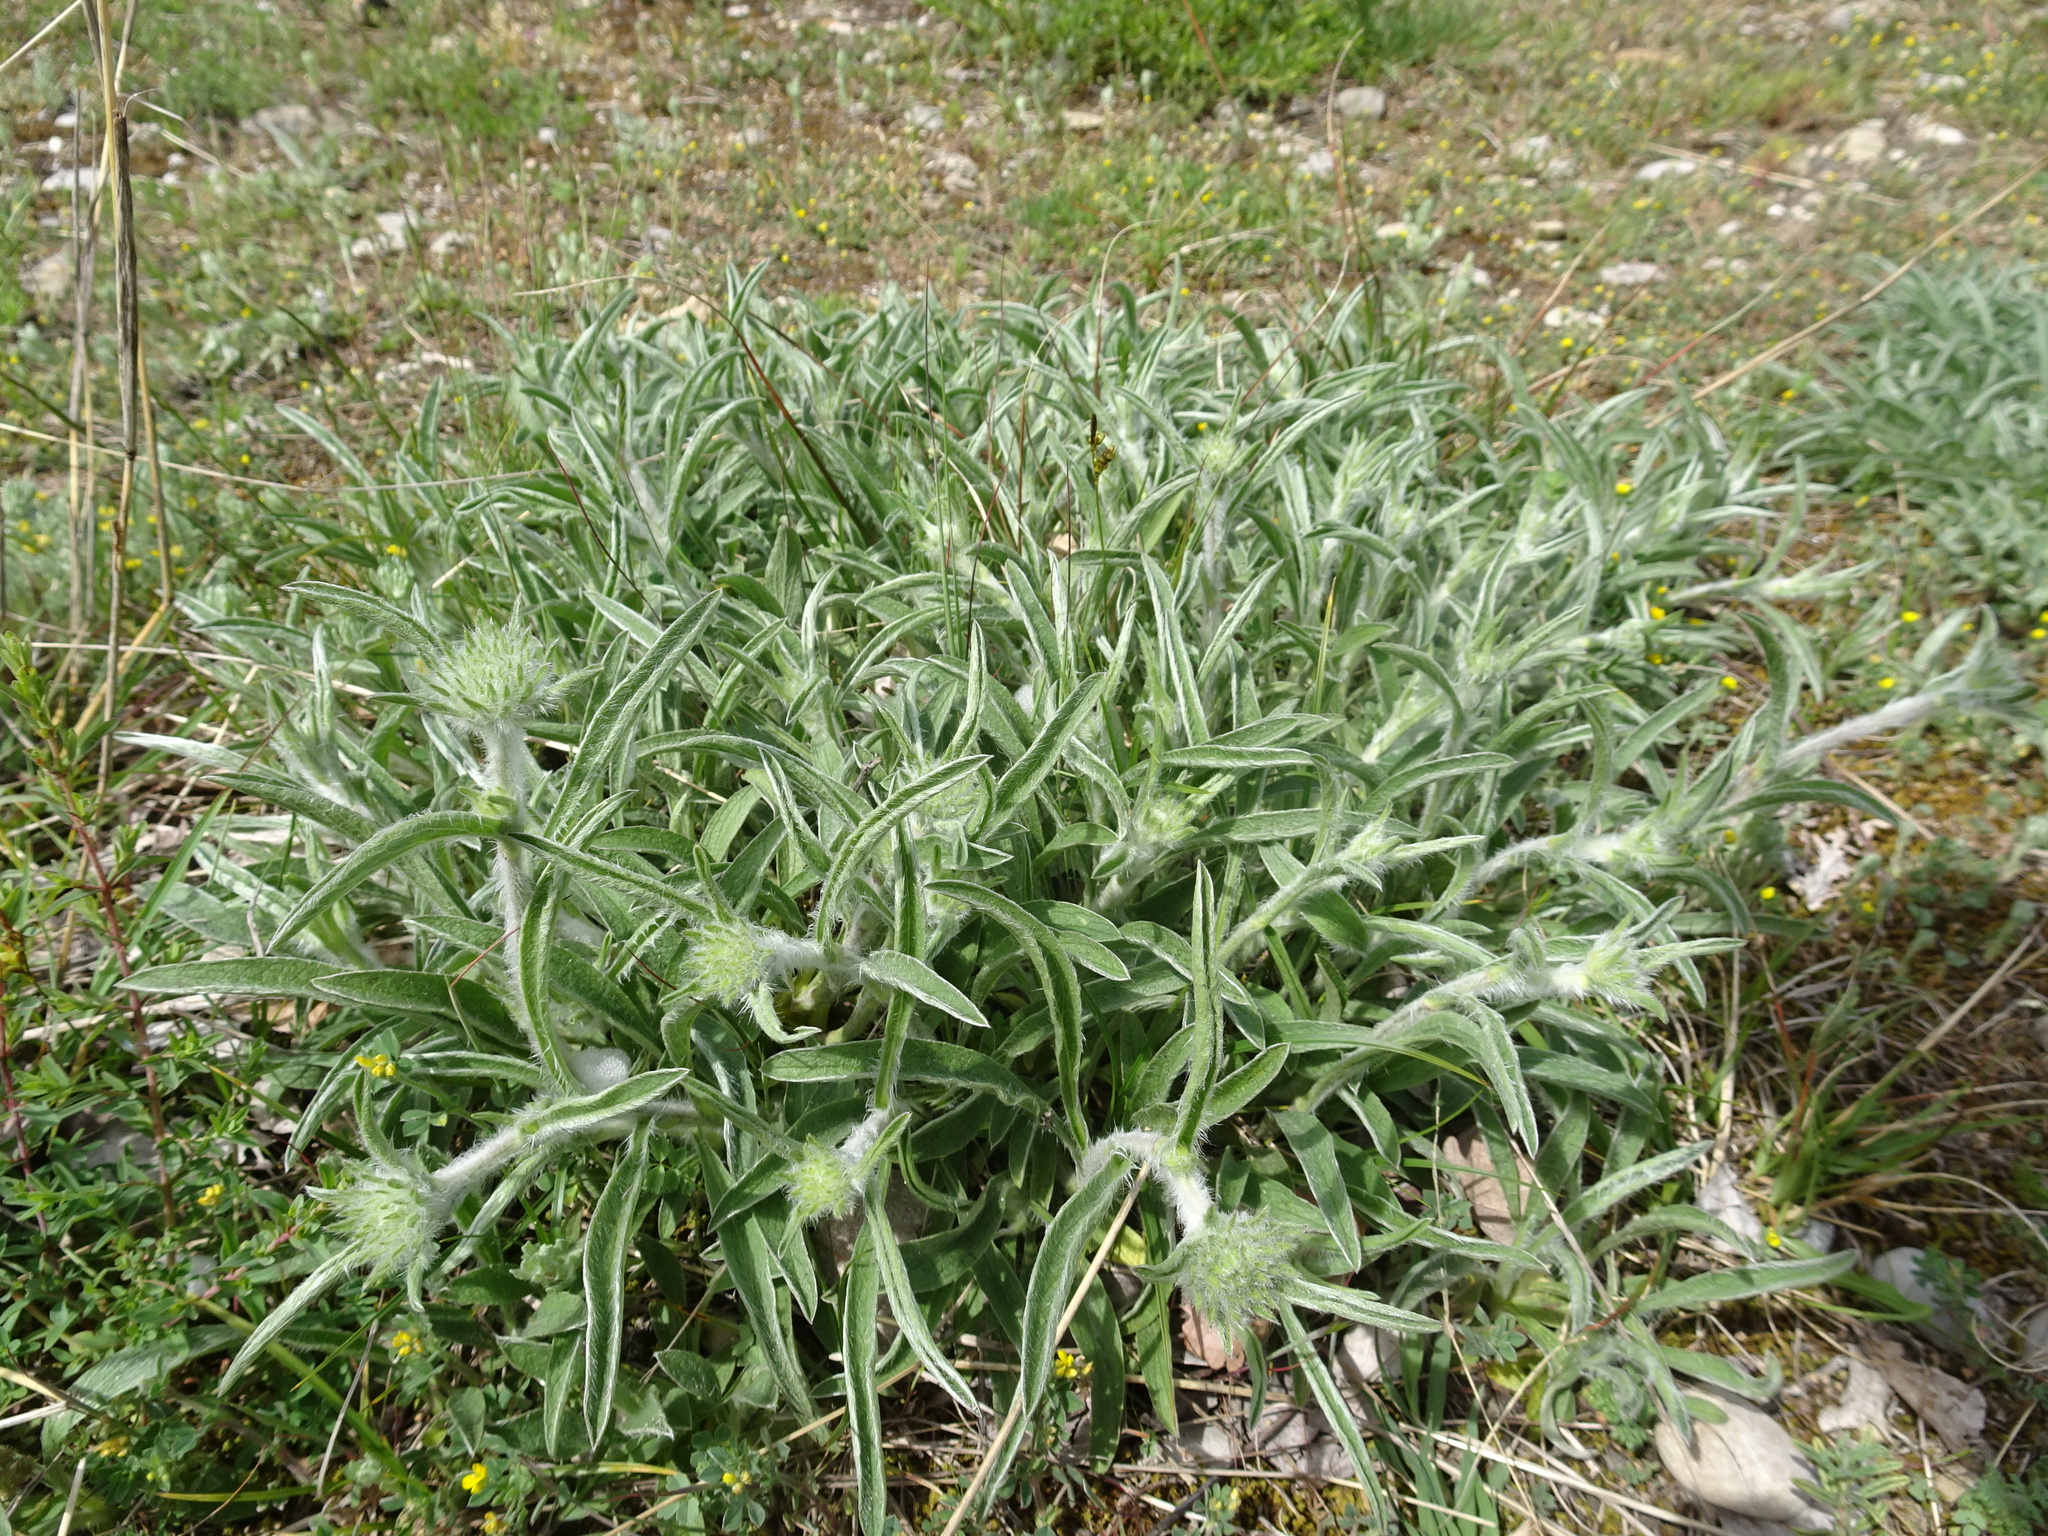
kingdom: Plantae
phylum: Tracheophyta
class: Magnoliopsida
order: Asterales
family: Asteraceae
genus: Pentanema
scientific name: Pentanema montanum
